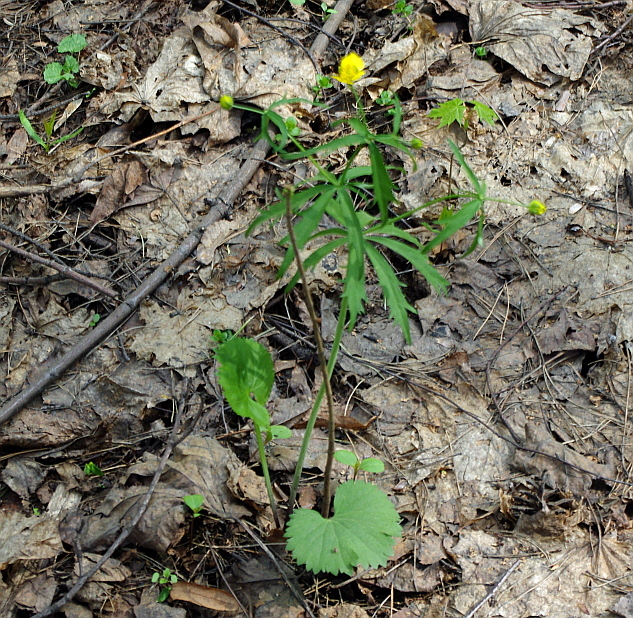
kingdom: Plantae
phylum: Tracheophyta
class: Magnoliopsida
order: Ranunculales
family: Ranunculaceae
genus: Ranunculus
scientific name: Ranunculus cassubicus
